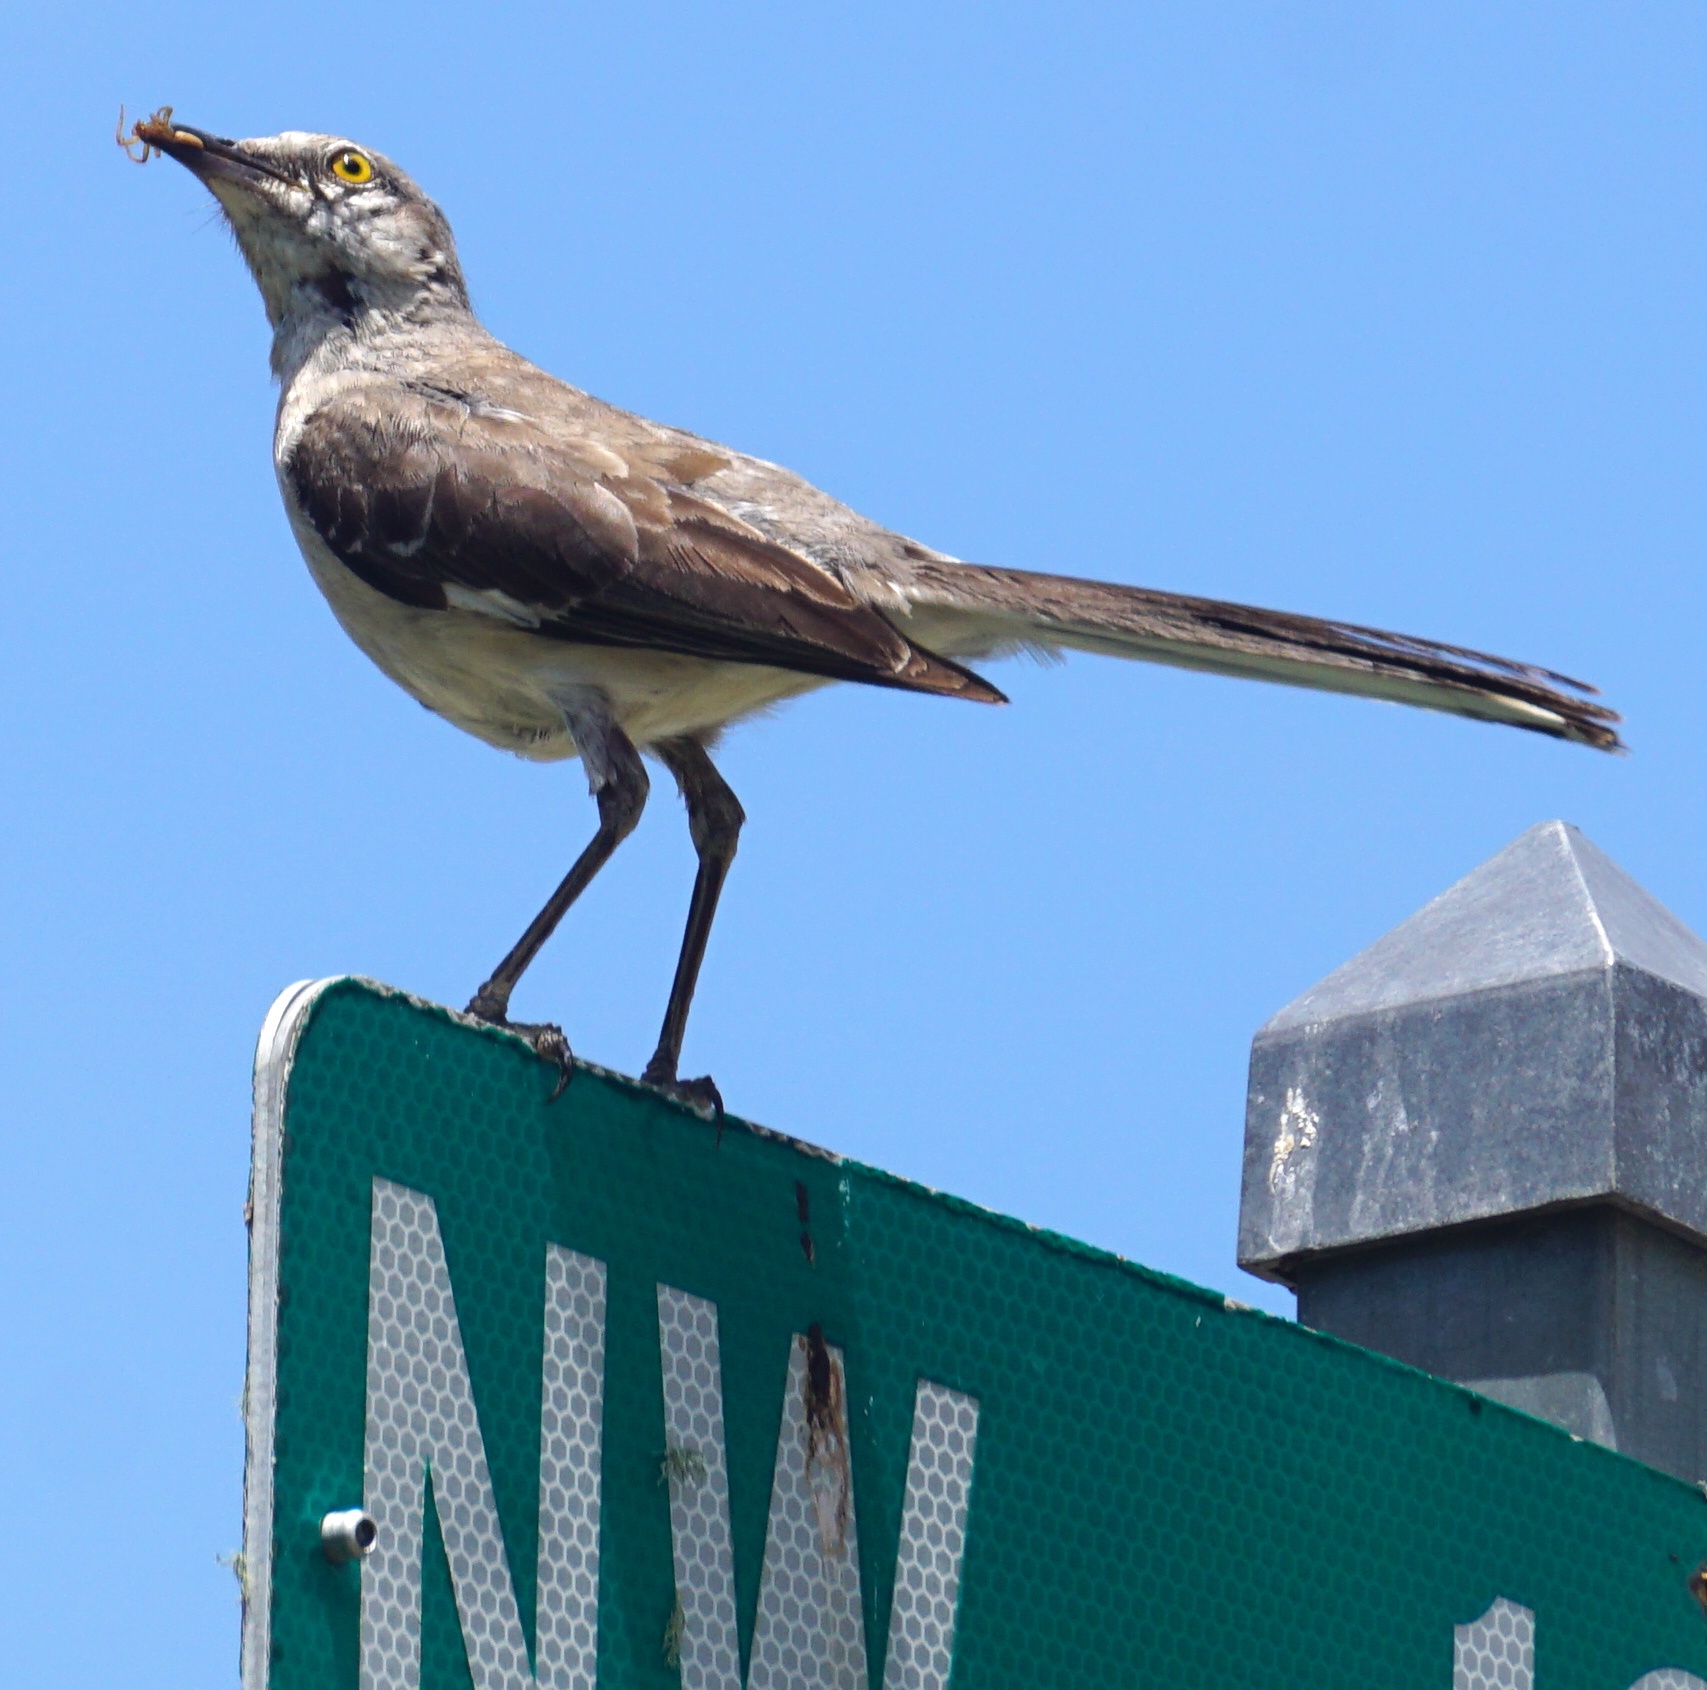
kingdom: Animalia
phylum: Chordata
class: Aves
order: Passeriformes
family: Mimidae
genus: Mimus
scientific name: Mimus polyglottos
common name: Northern mockingbird
